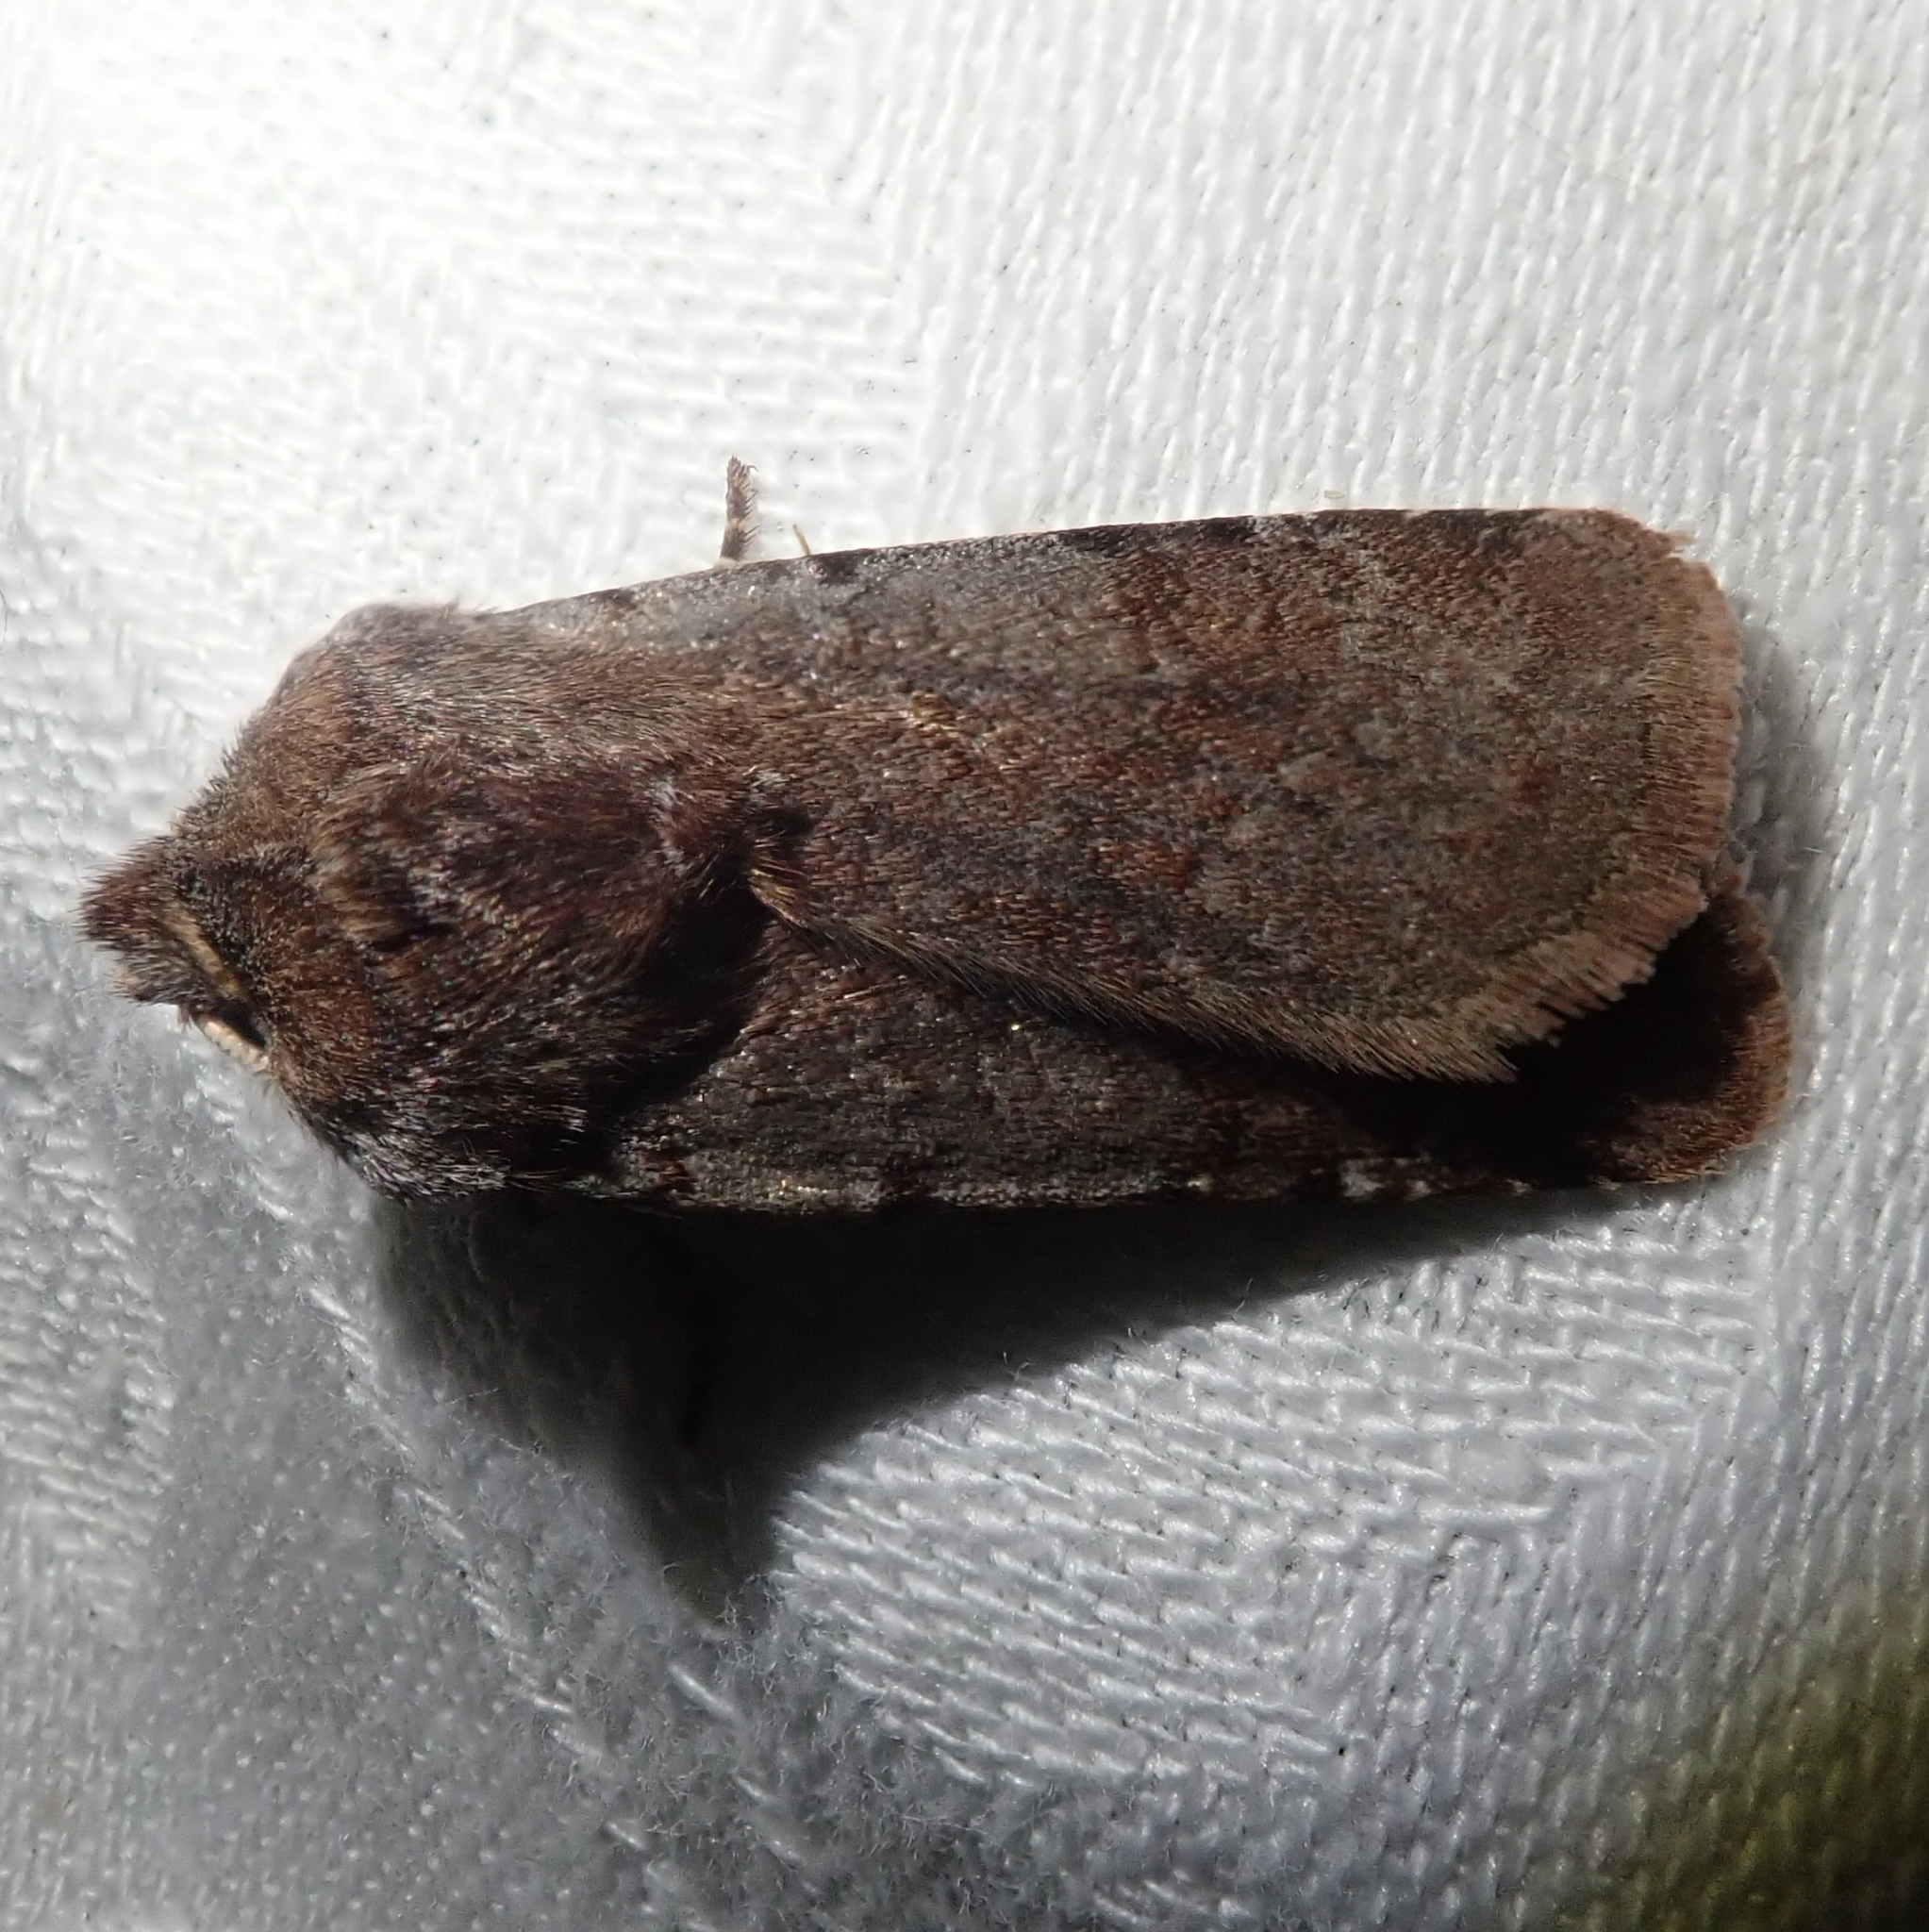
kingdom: Animalia
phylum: Arthropoda
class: Insecta
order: Lepidoptera
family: Noctuidae
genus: Cerastis
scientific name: Cerastis rubricosa
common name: Red chestnut
